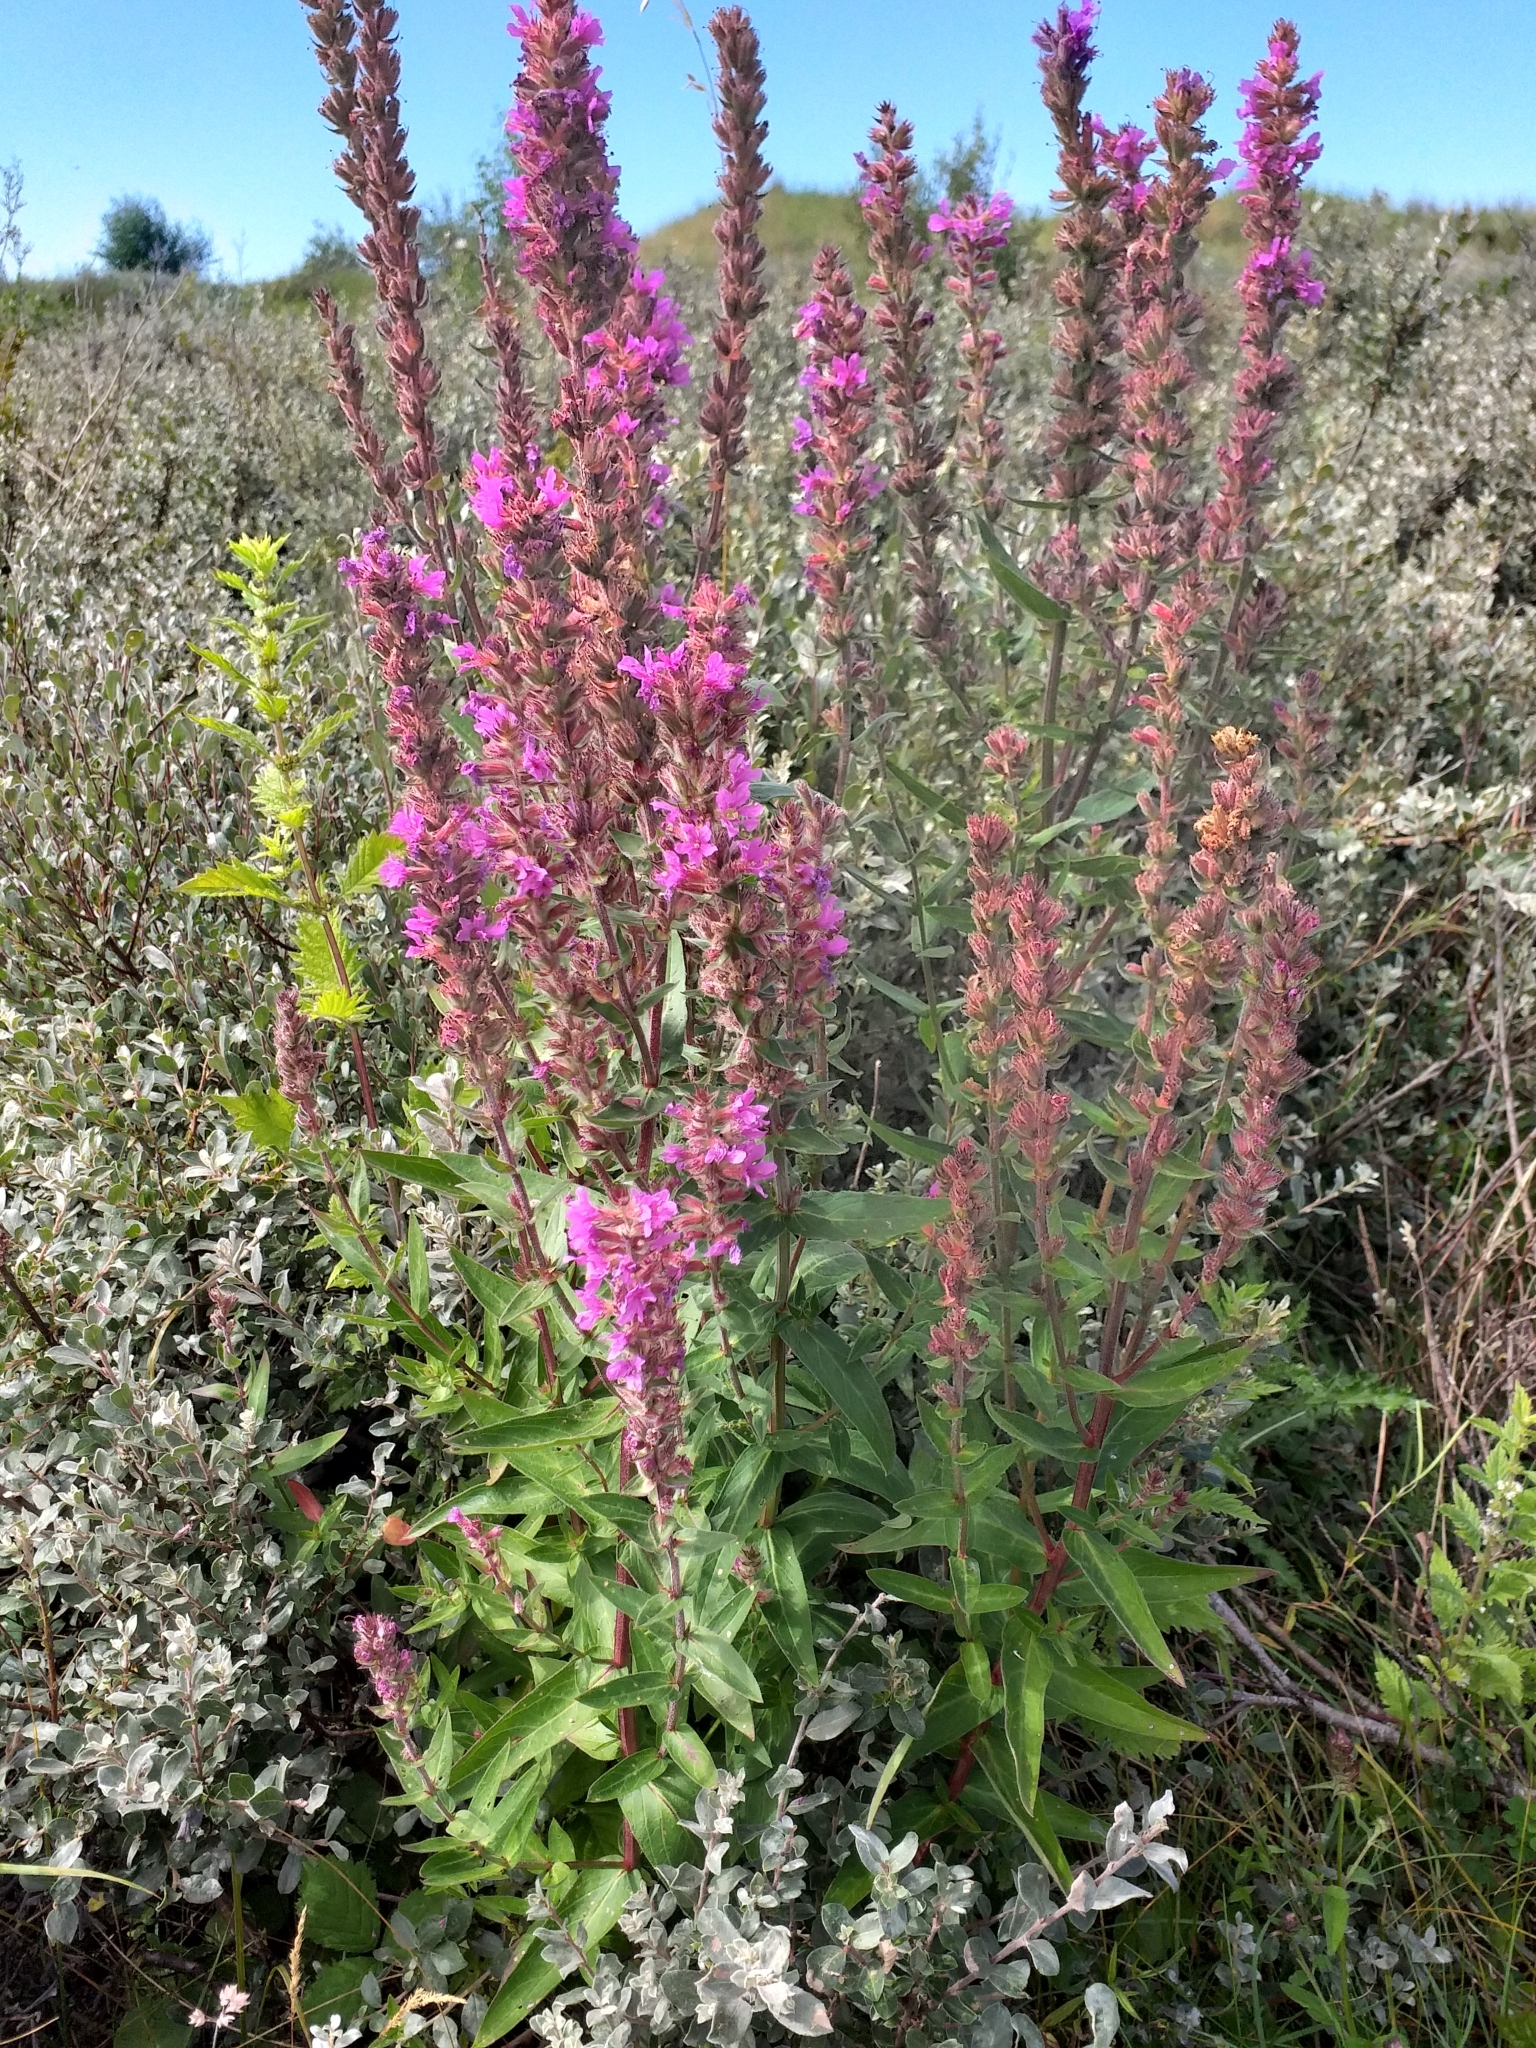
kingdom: Plantae
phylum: Tracheophyta
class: Magnoliopsida
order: Myrtales
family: Lythraceae
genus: Lythrum
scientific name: Lythrum salicaria
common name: Purple loosestrife
